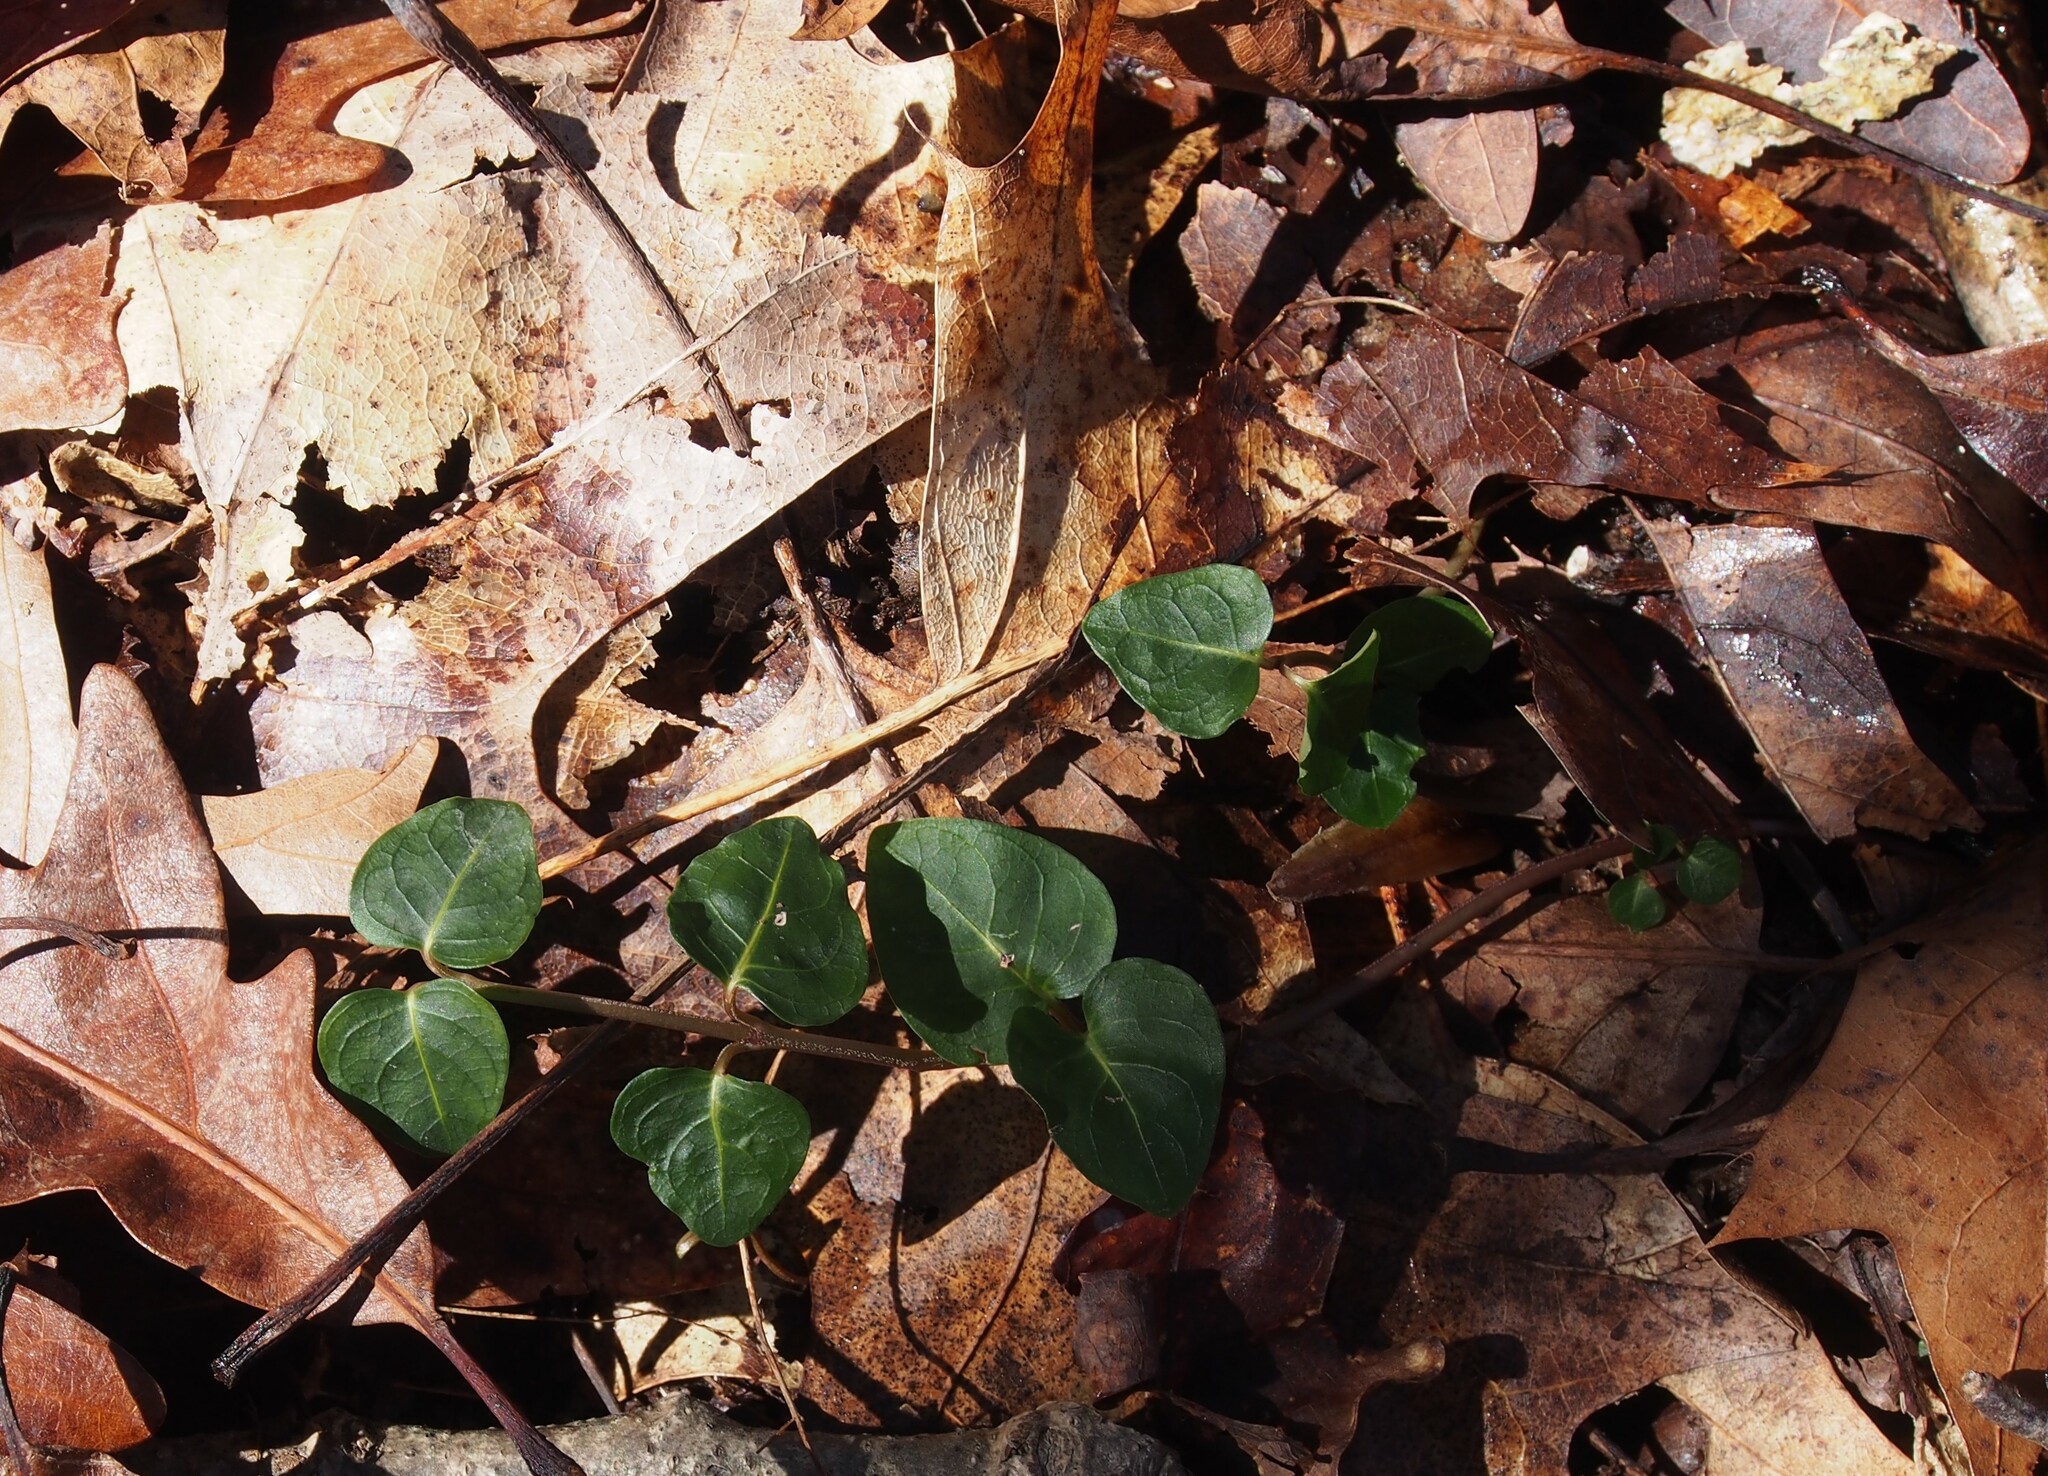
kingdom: Plantae
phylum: Tracheophyta
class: Magnoliopsida
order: Gentianales
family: Rubiaceae
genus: Mitchella
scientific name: Mitchella repens
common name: Partridge-berry
